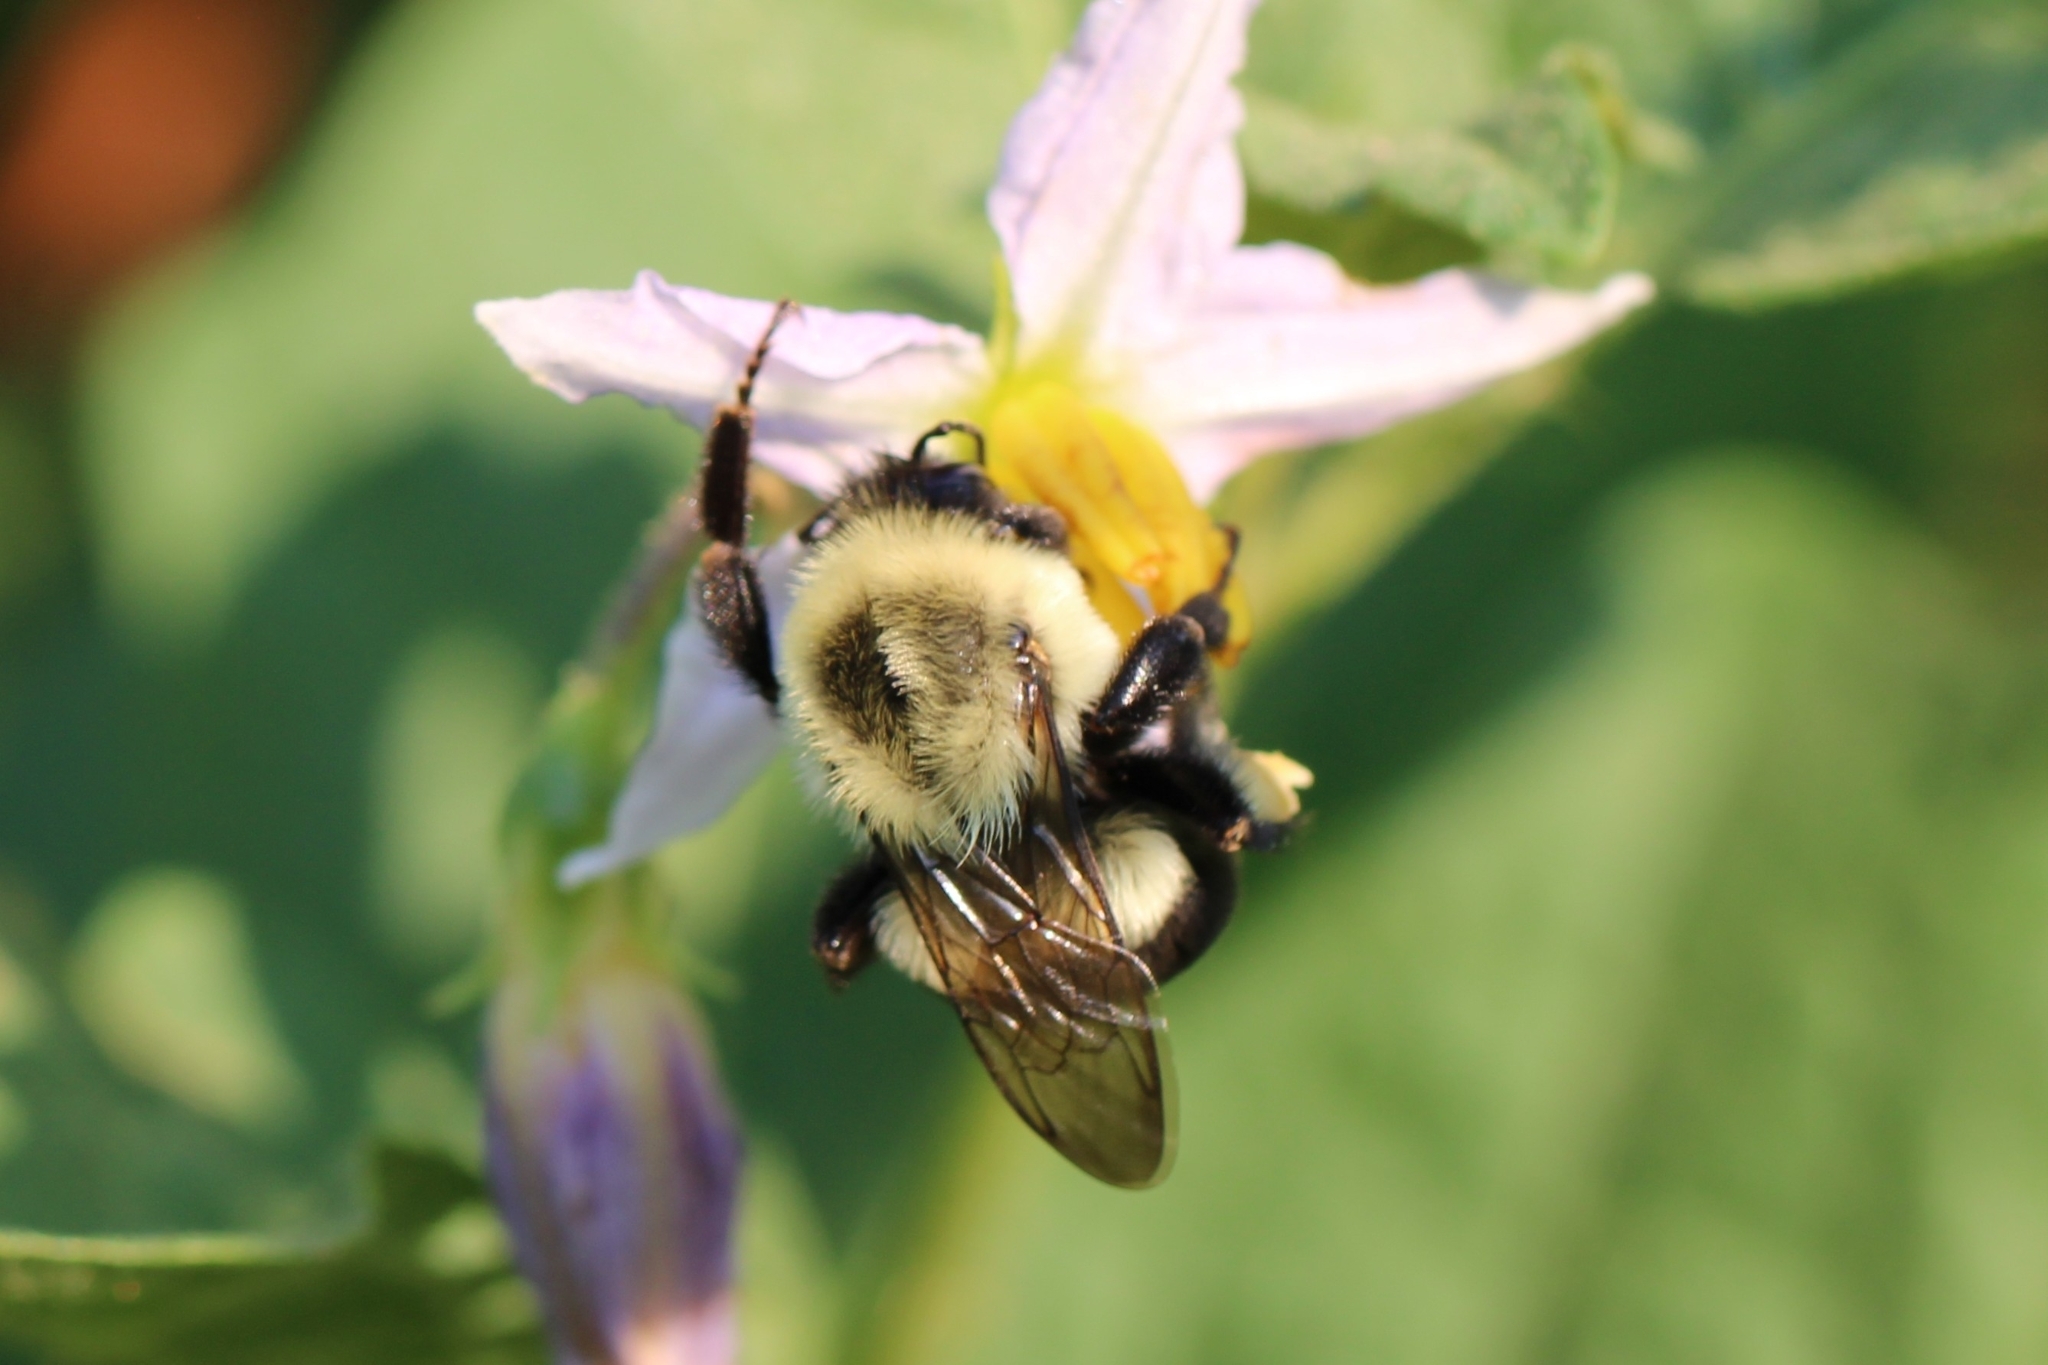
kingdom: Animalia
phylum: Arthropoda
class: Insecta
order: Hymenoptera
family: Apidae
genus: Bombus
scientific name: Bombus impatiens
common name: Common eastern bumble bee
